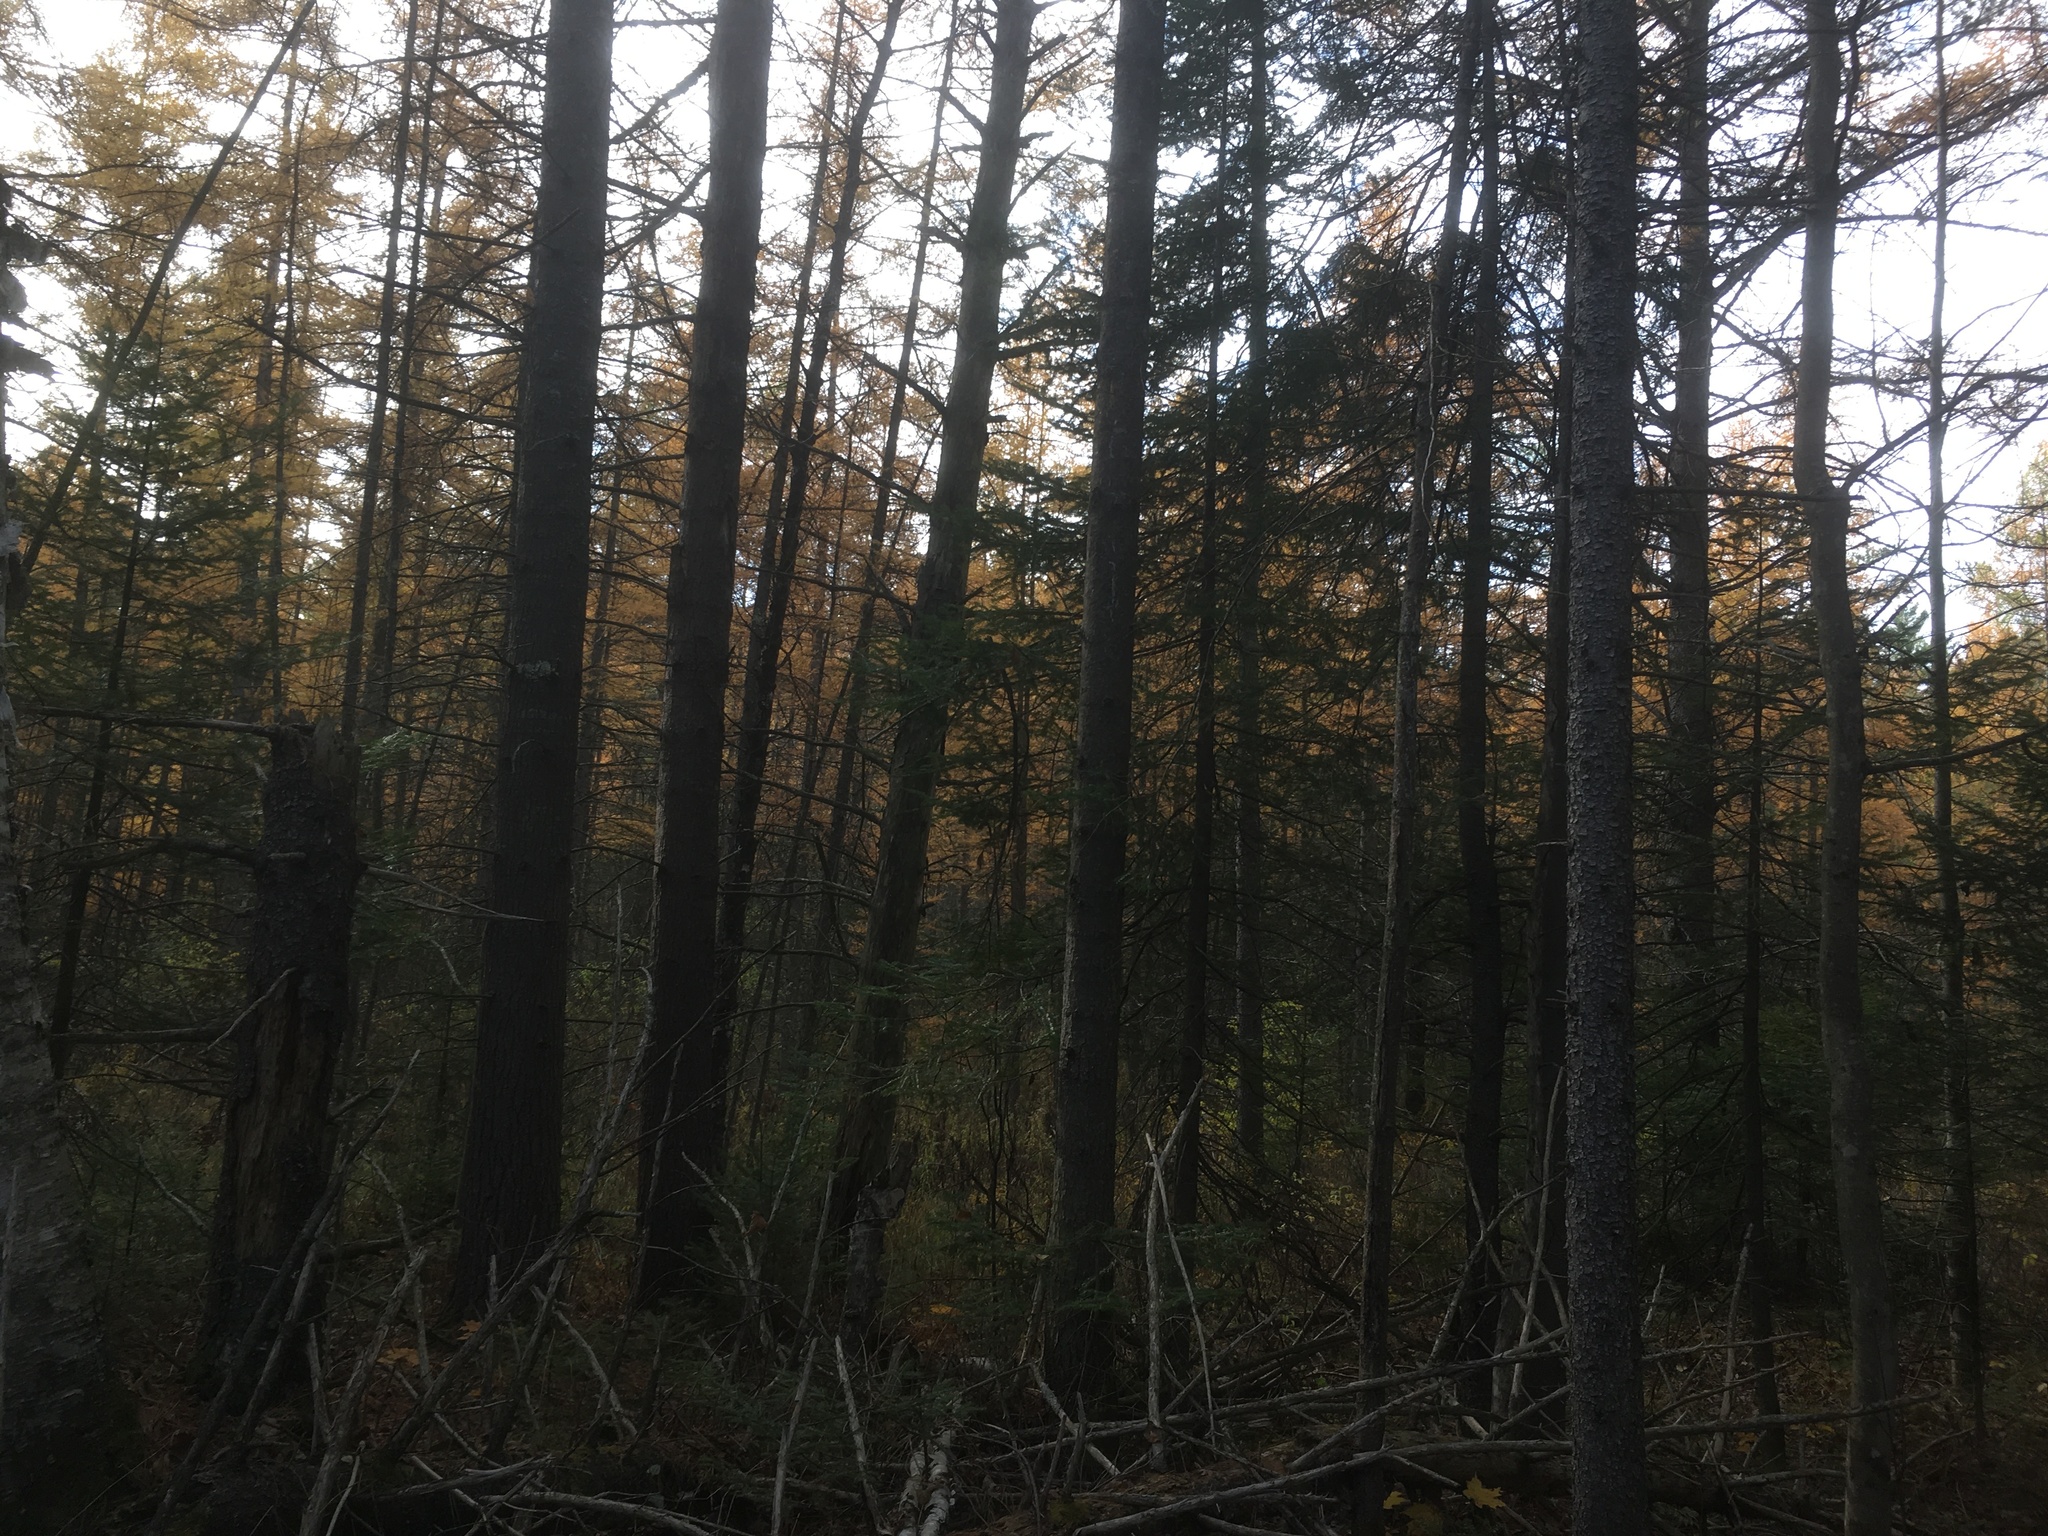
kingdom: Plantae
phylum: Tracheophyta
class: Pinopsida
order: Pinales
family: Pinaceae
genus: Larix
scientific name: Larix laricina
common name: American larch
